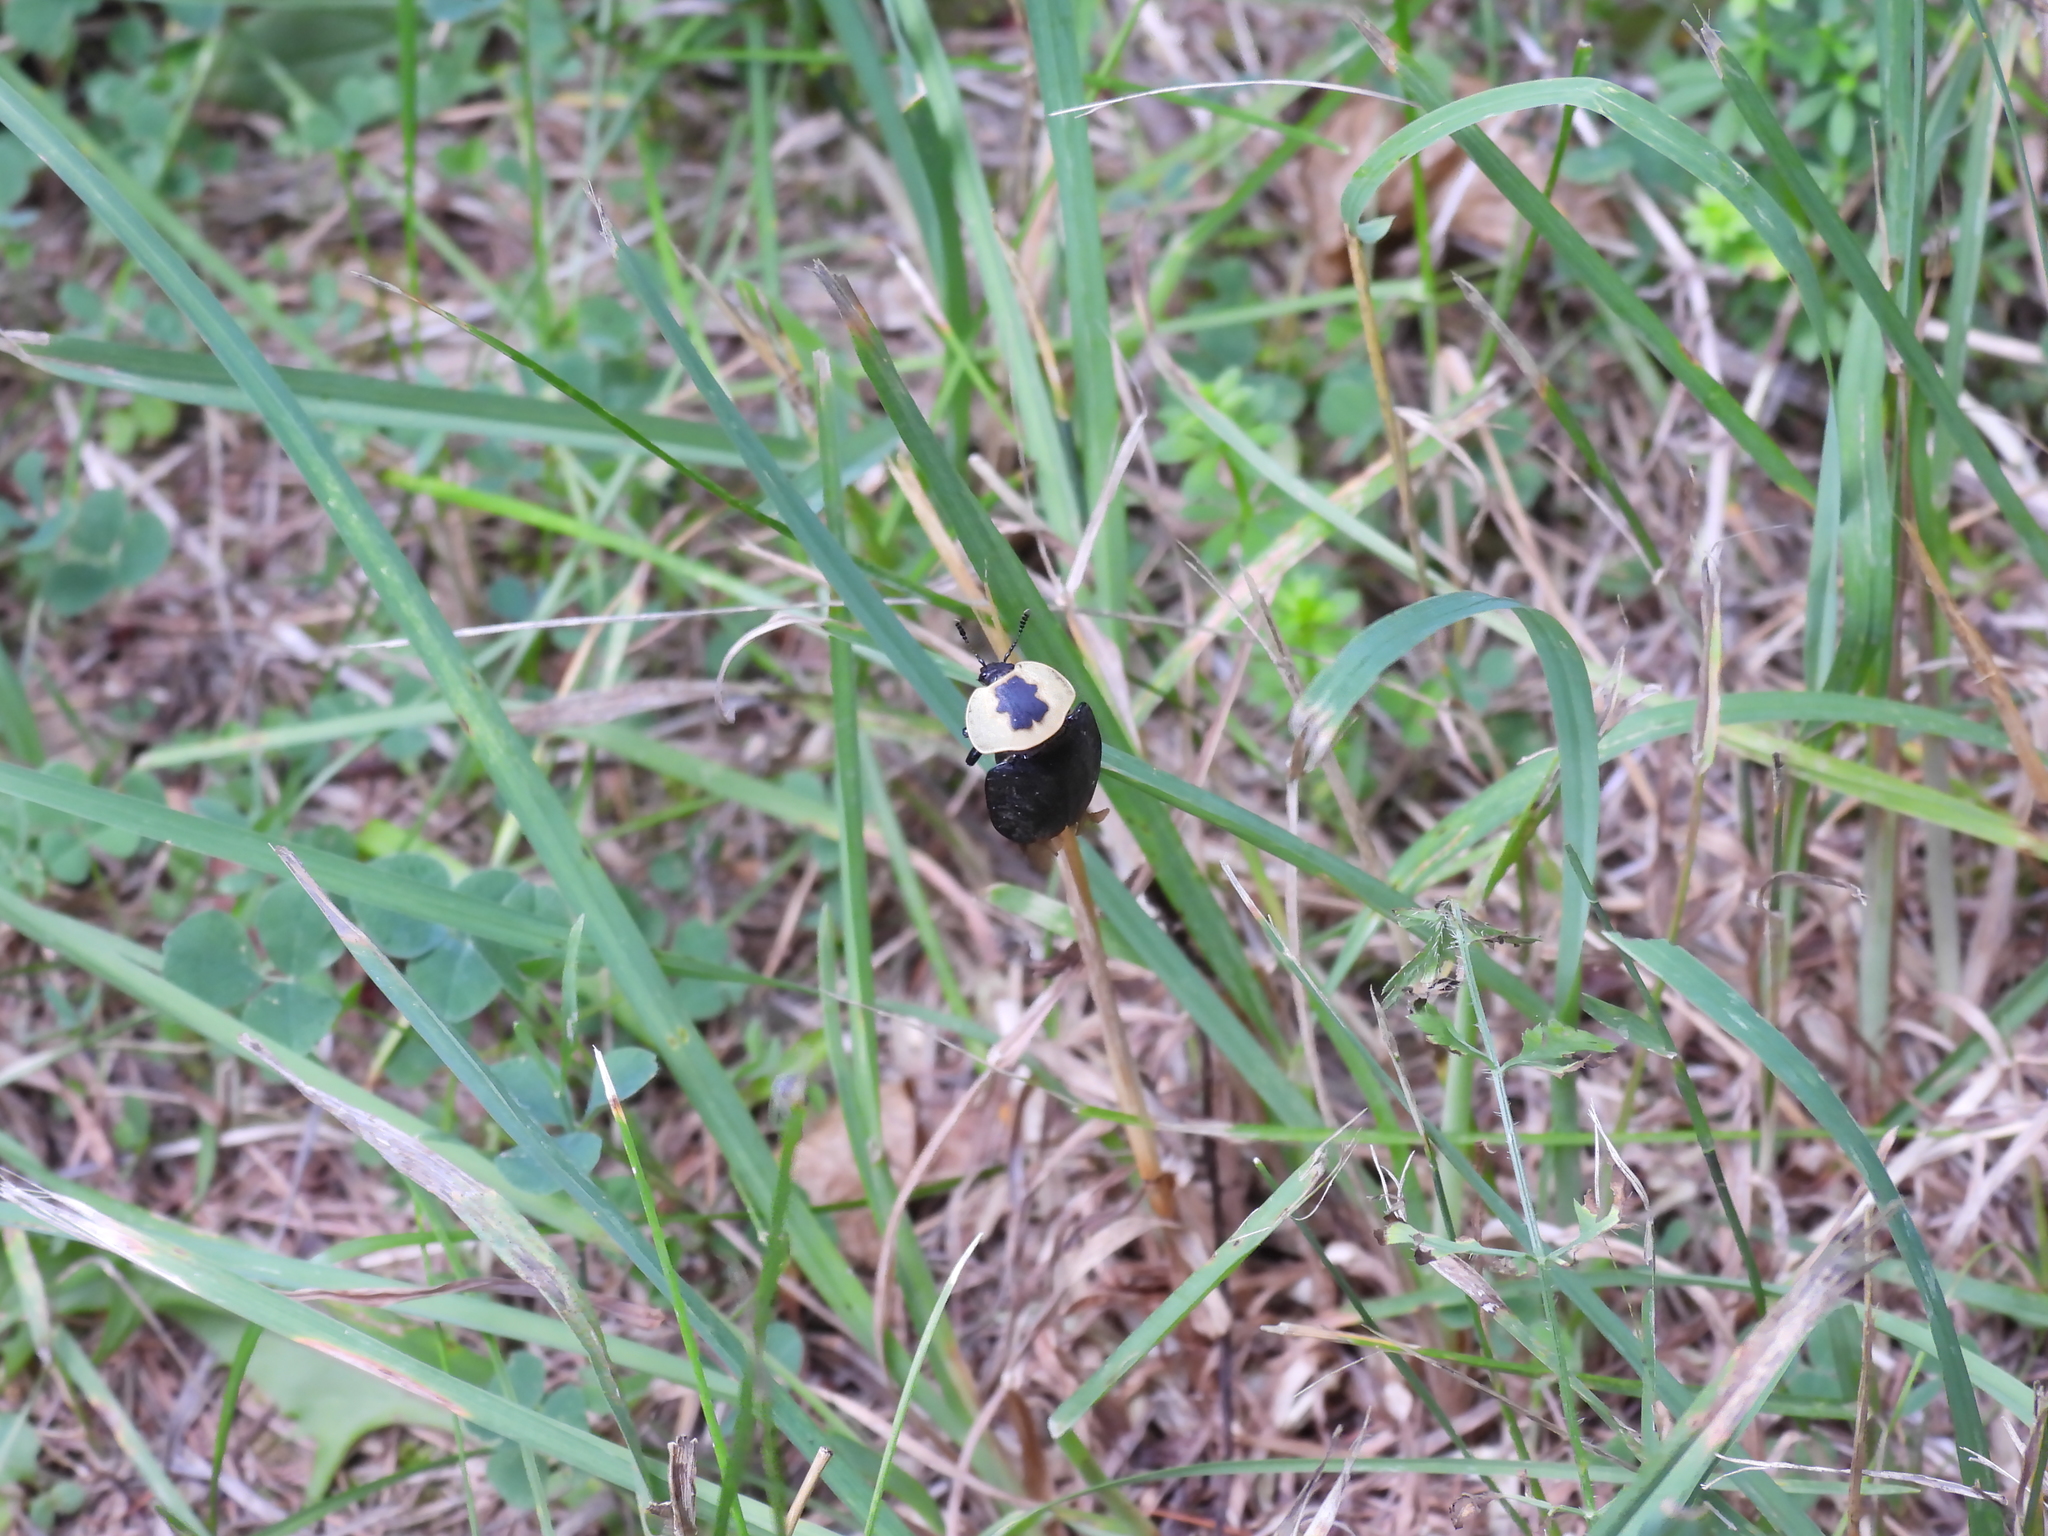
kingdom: Animalia
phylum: Arthropoda
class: Insecta
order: Coleoptera
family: Staphylinidae
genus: Necrophila
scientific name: Necrophila americana
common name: American carrion beetle
